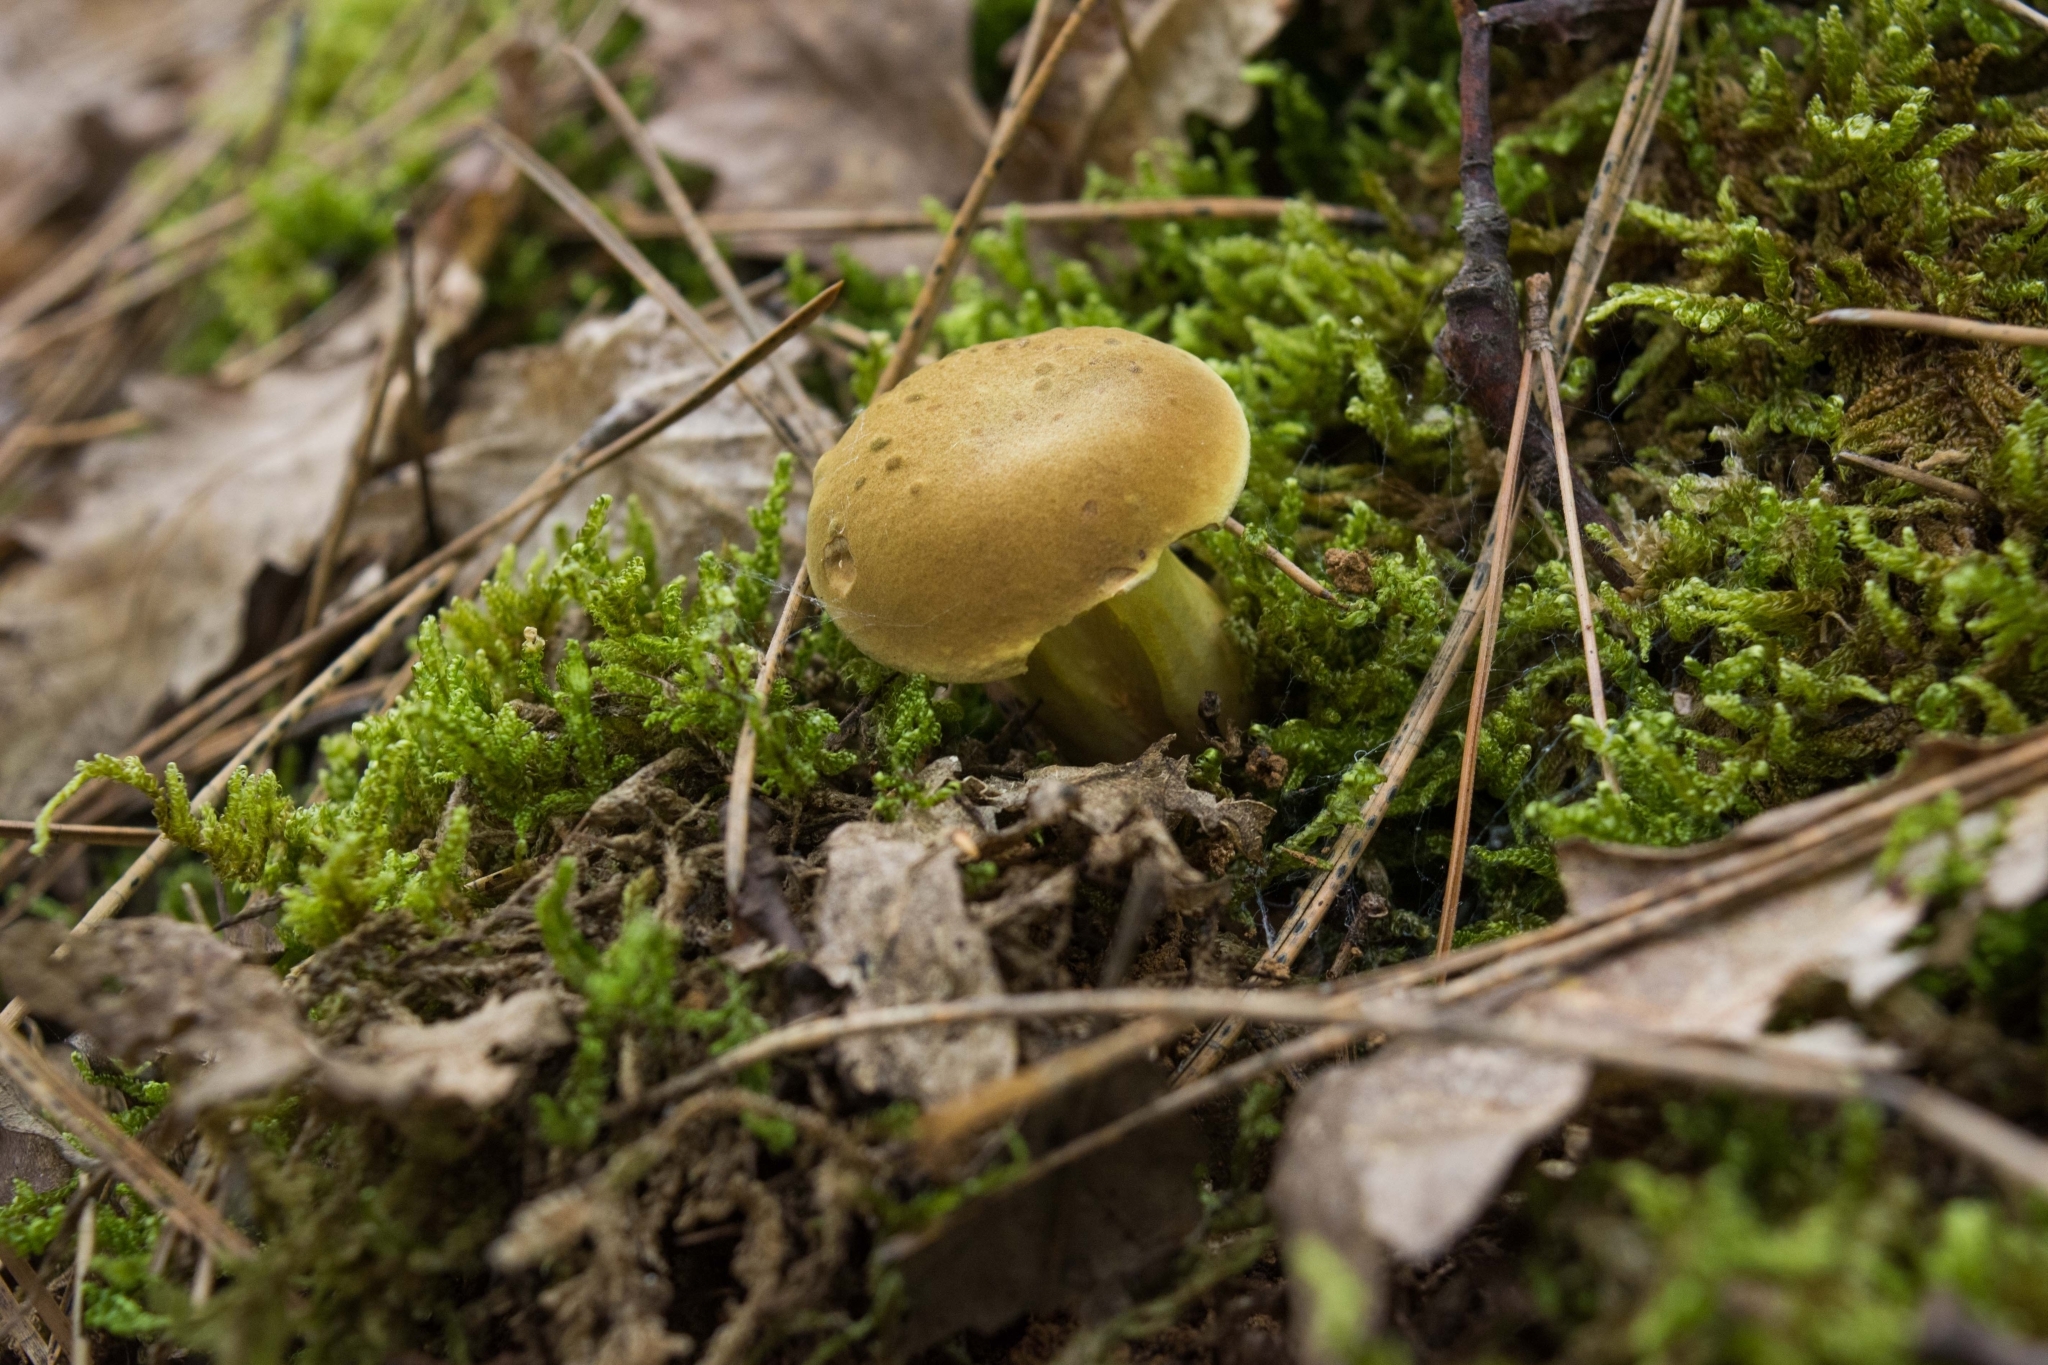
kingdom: Fungi
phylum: Basidiomycota
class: Agaricomycetes
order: Boletales
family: Boletaceae
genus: Xerocomus
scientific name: Xerocomus subtomentosus
